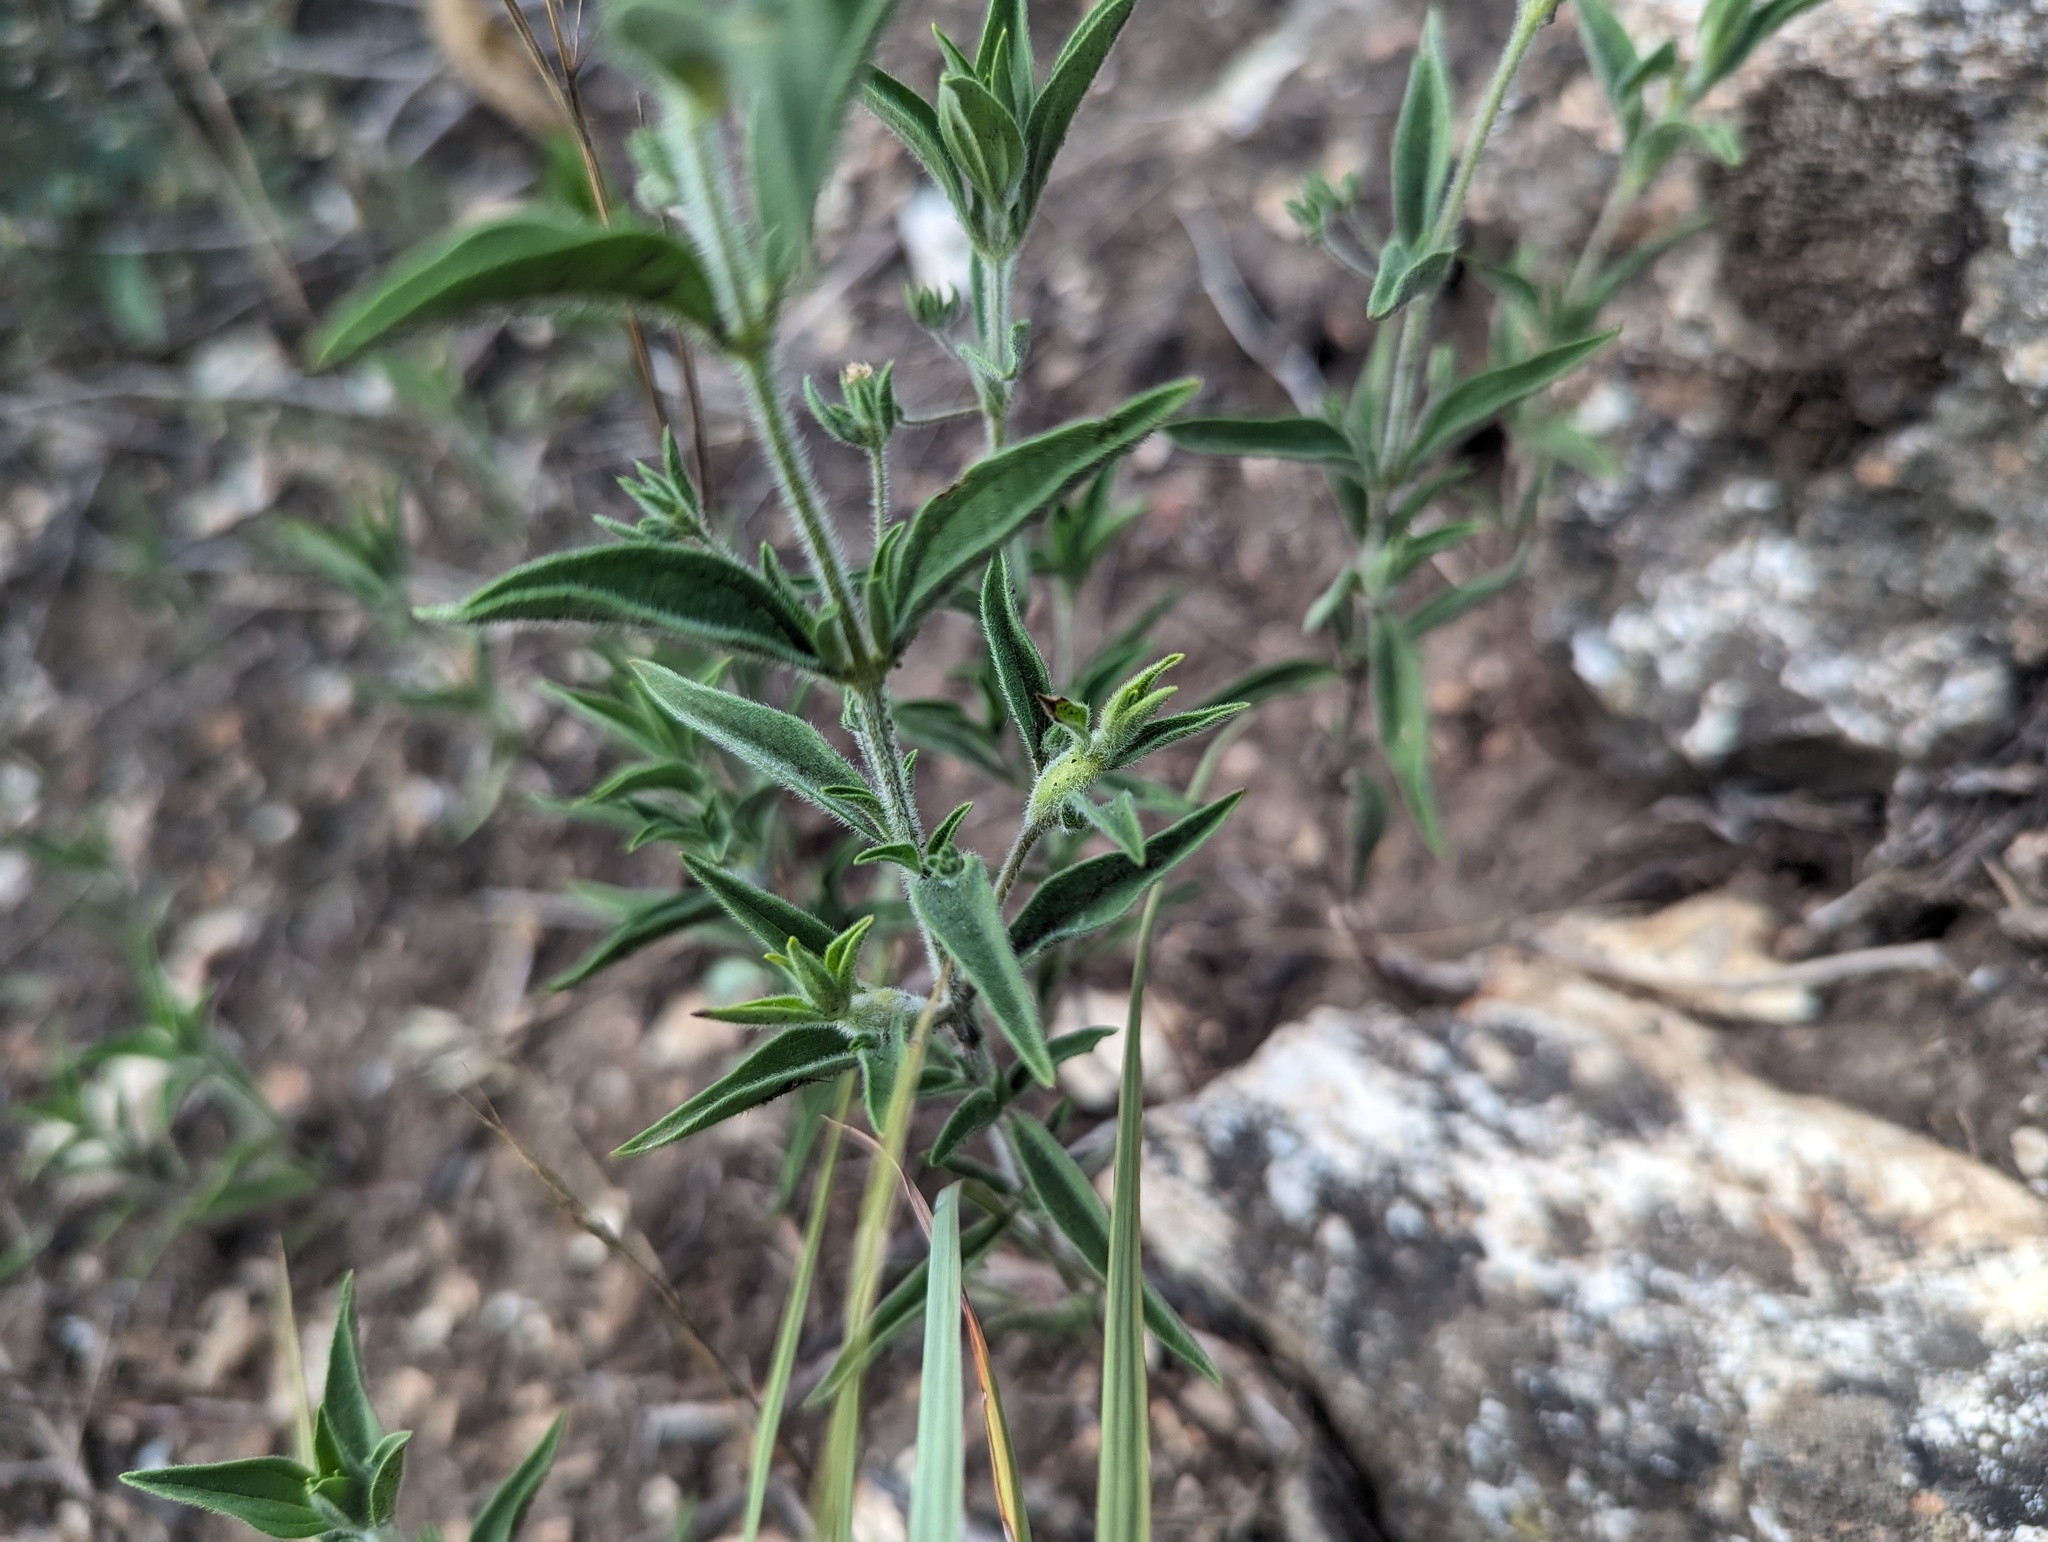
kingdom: Plantae
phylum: Tracheophyta
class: Magnoliopsida
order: Lamiales
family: Lamiaceae
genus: Trichostema
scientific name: Trichostema brachiatum
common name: False pennyroyal
